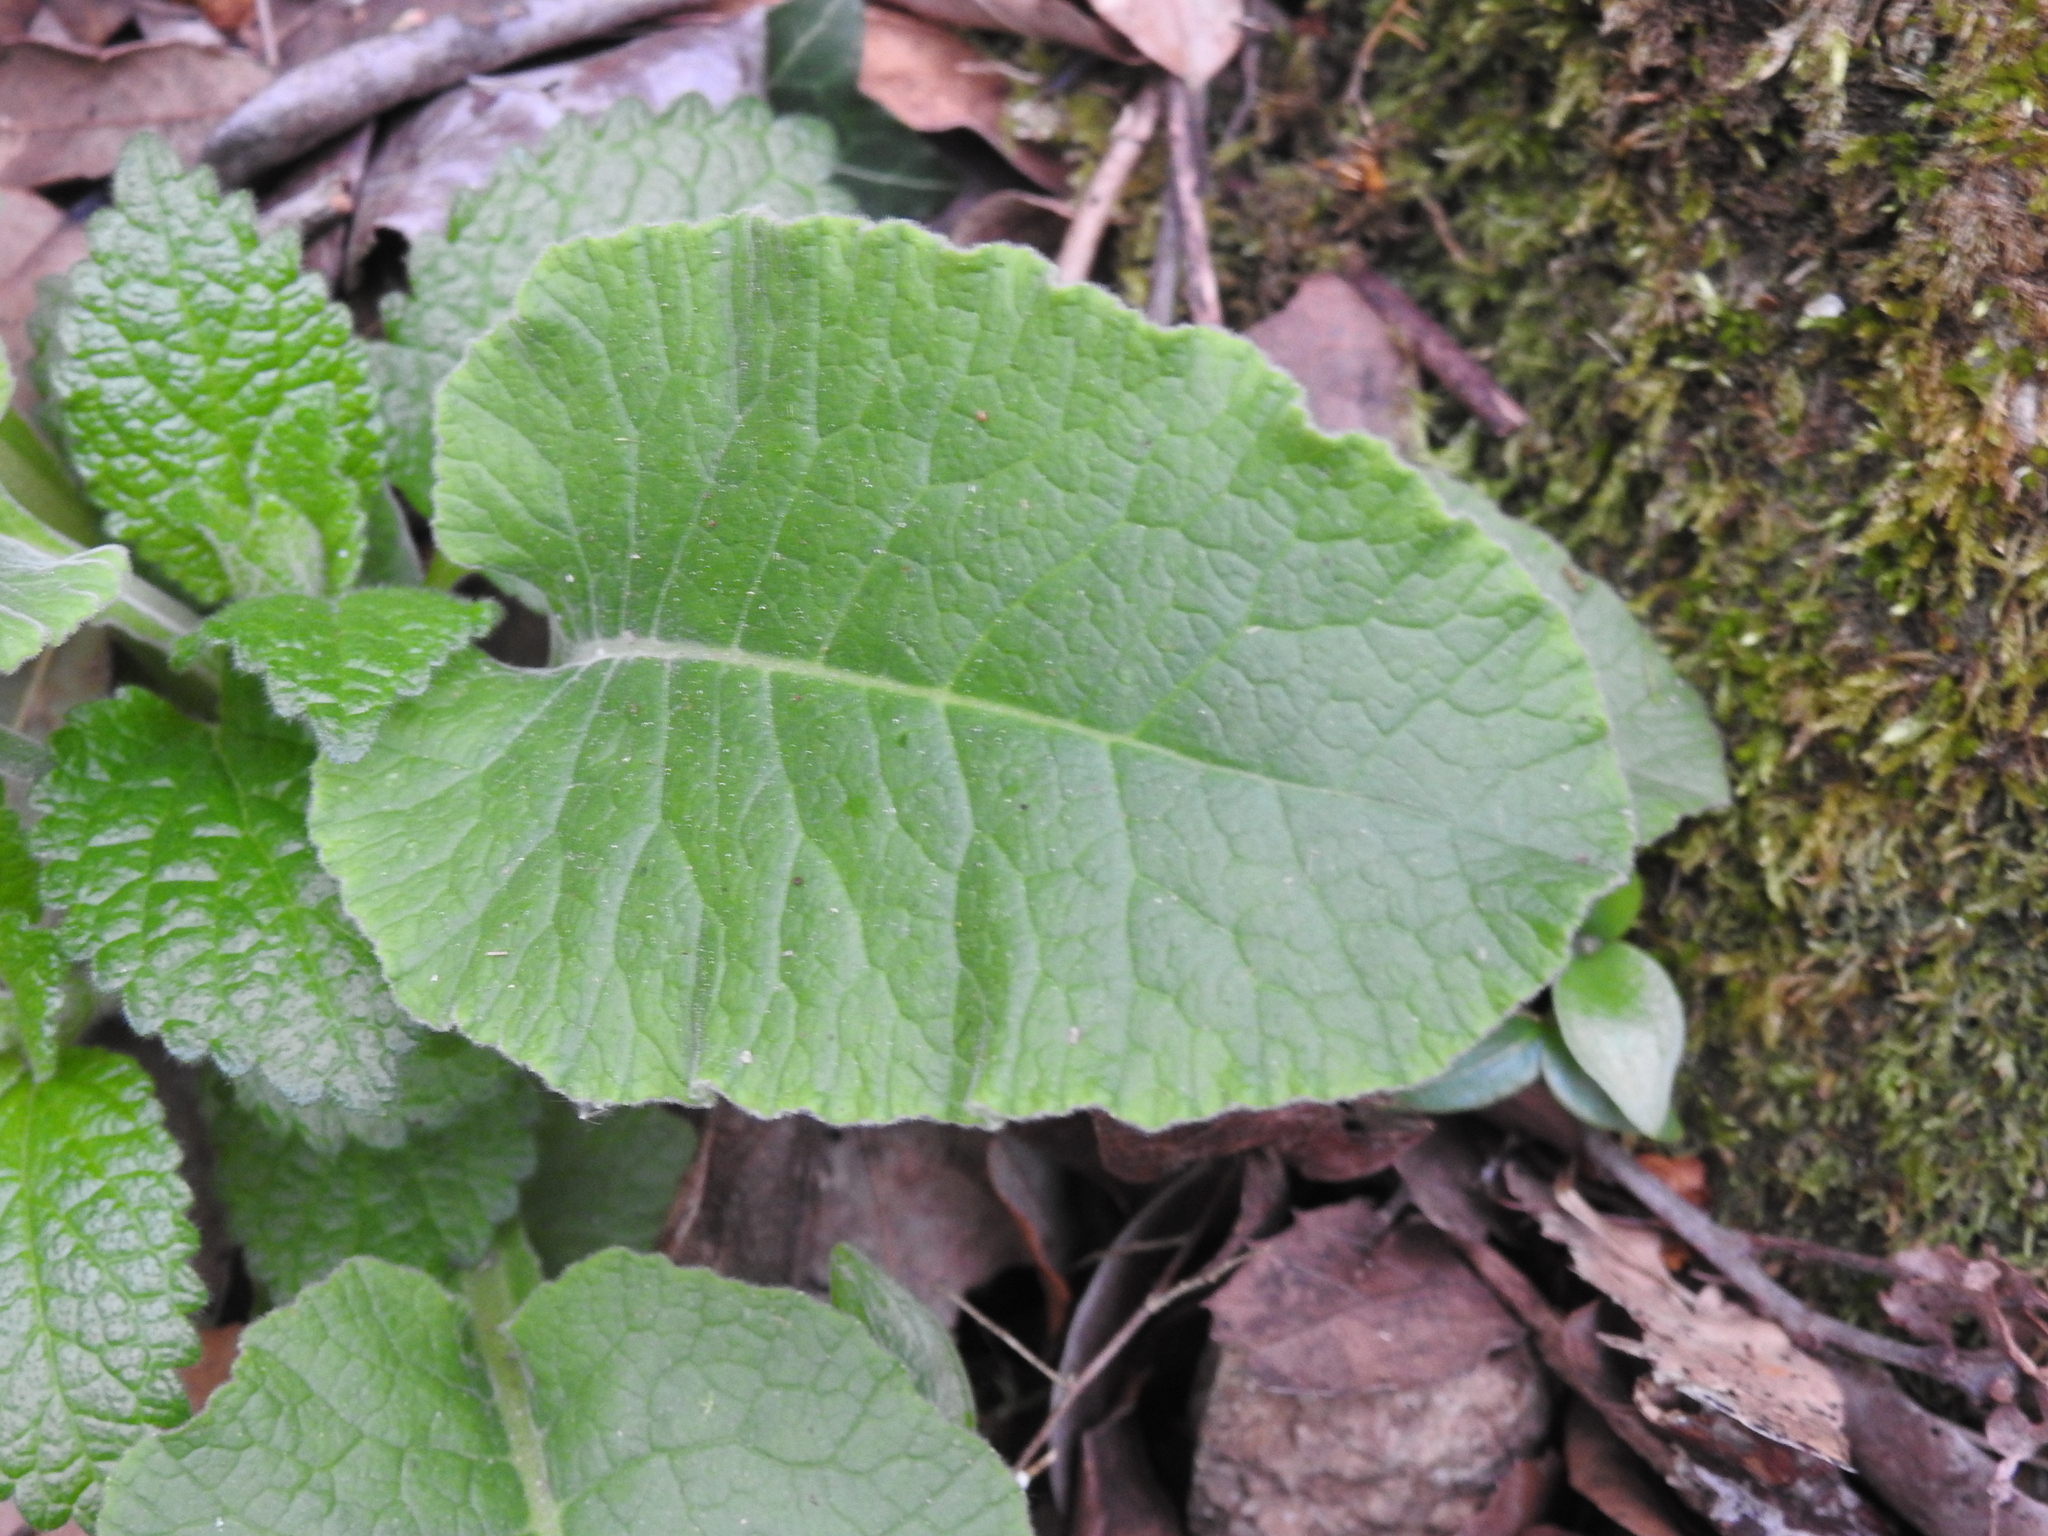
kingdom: Plantae
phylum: Tracheophyta
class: Magnoliopsida
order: Ericales
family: Primulaceae
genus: Primula
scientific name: Primula veris
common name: Cowslip
